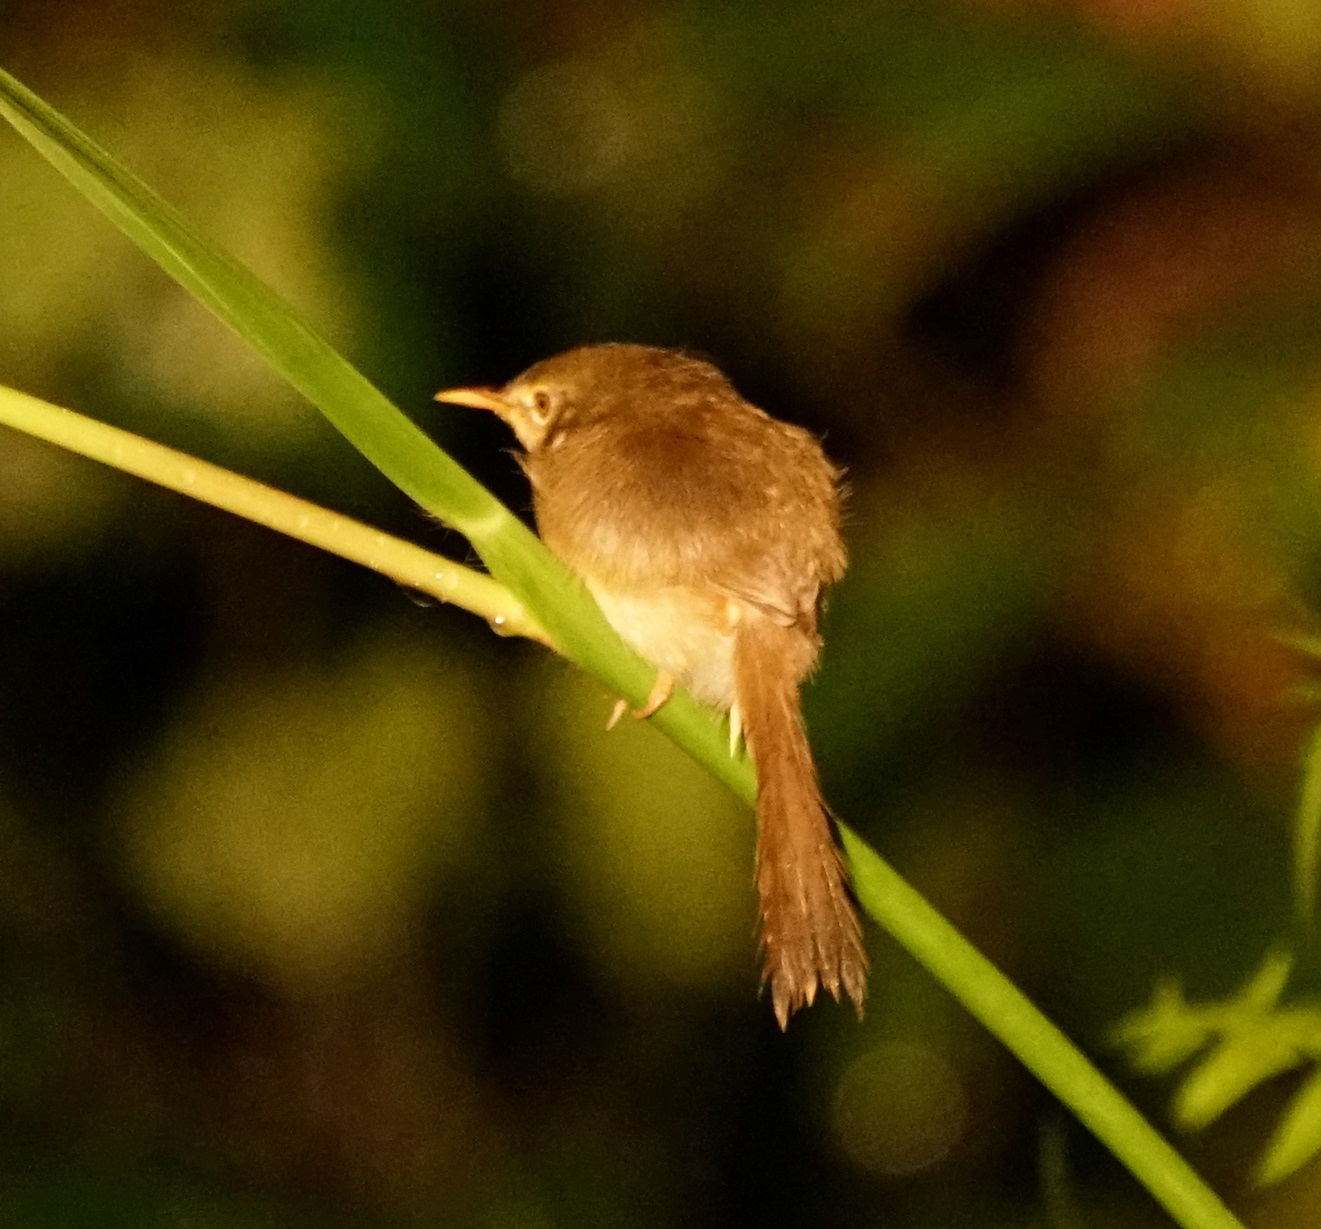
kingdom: Animalia
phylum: Chordata
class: Aves
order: Passeriformes
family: Cisticolidae
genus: Prinia
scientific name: Prinia flaviventris
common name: Yellow-bellied prinia
